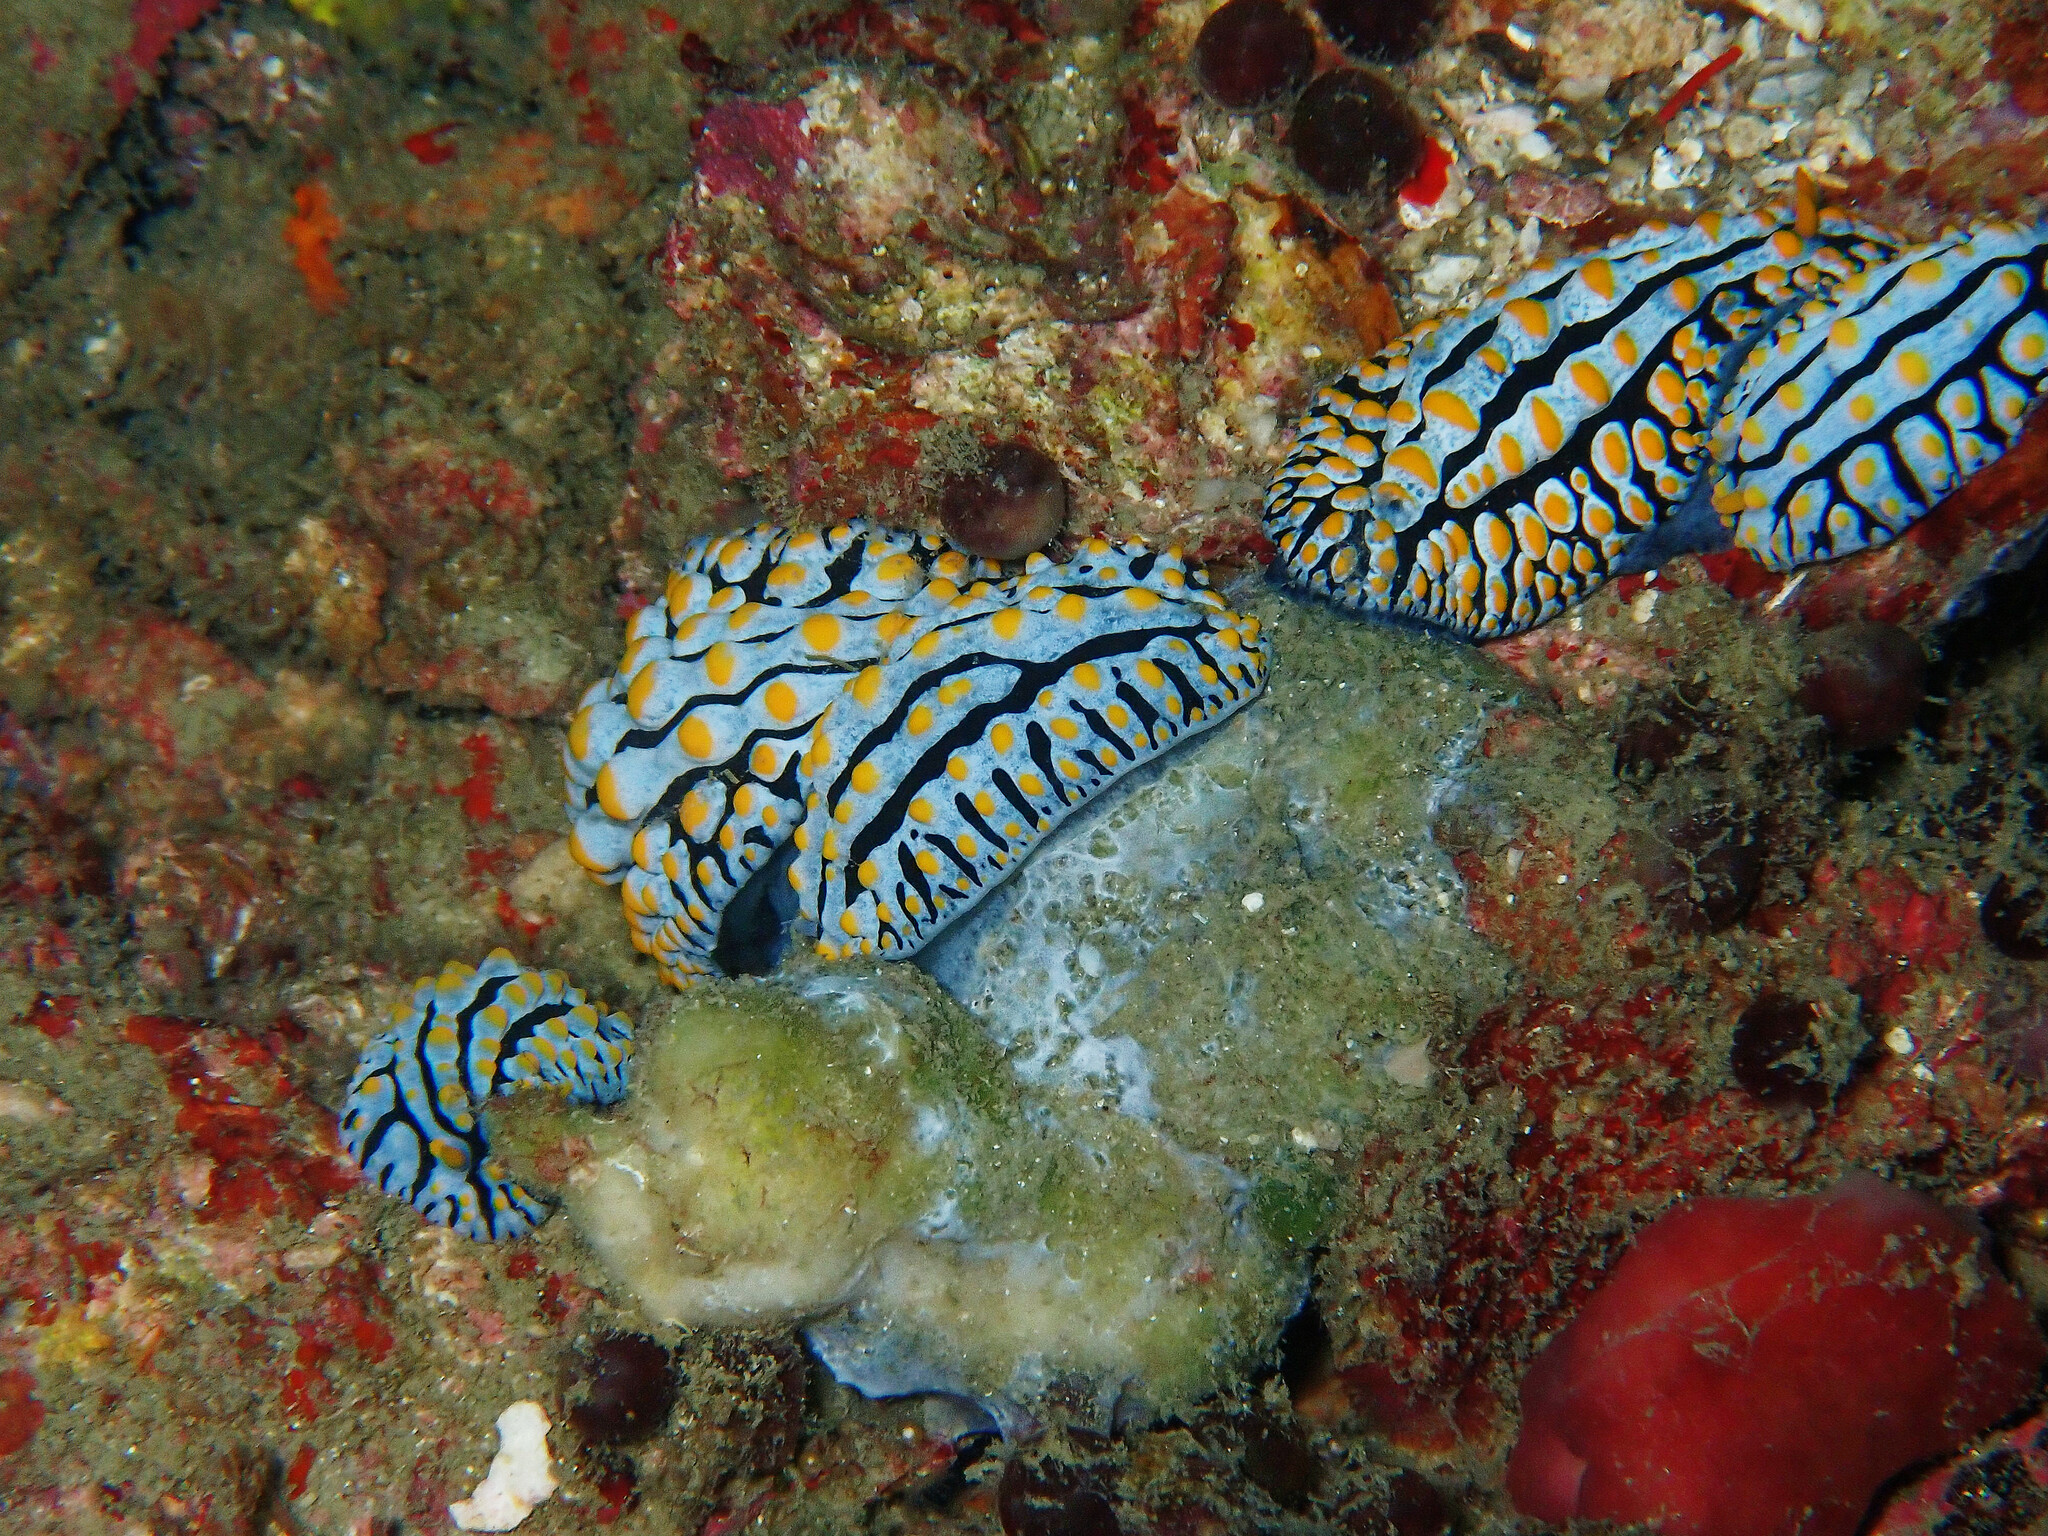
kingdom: Animalia
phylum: Mollusca
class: Gastropoda
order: Nudibranchia
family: Phyllidiidae
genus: Phyllidia
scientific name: Phyllidia varicosa
